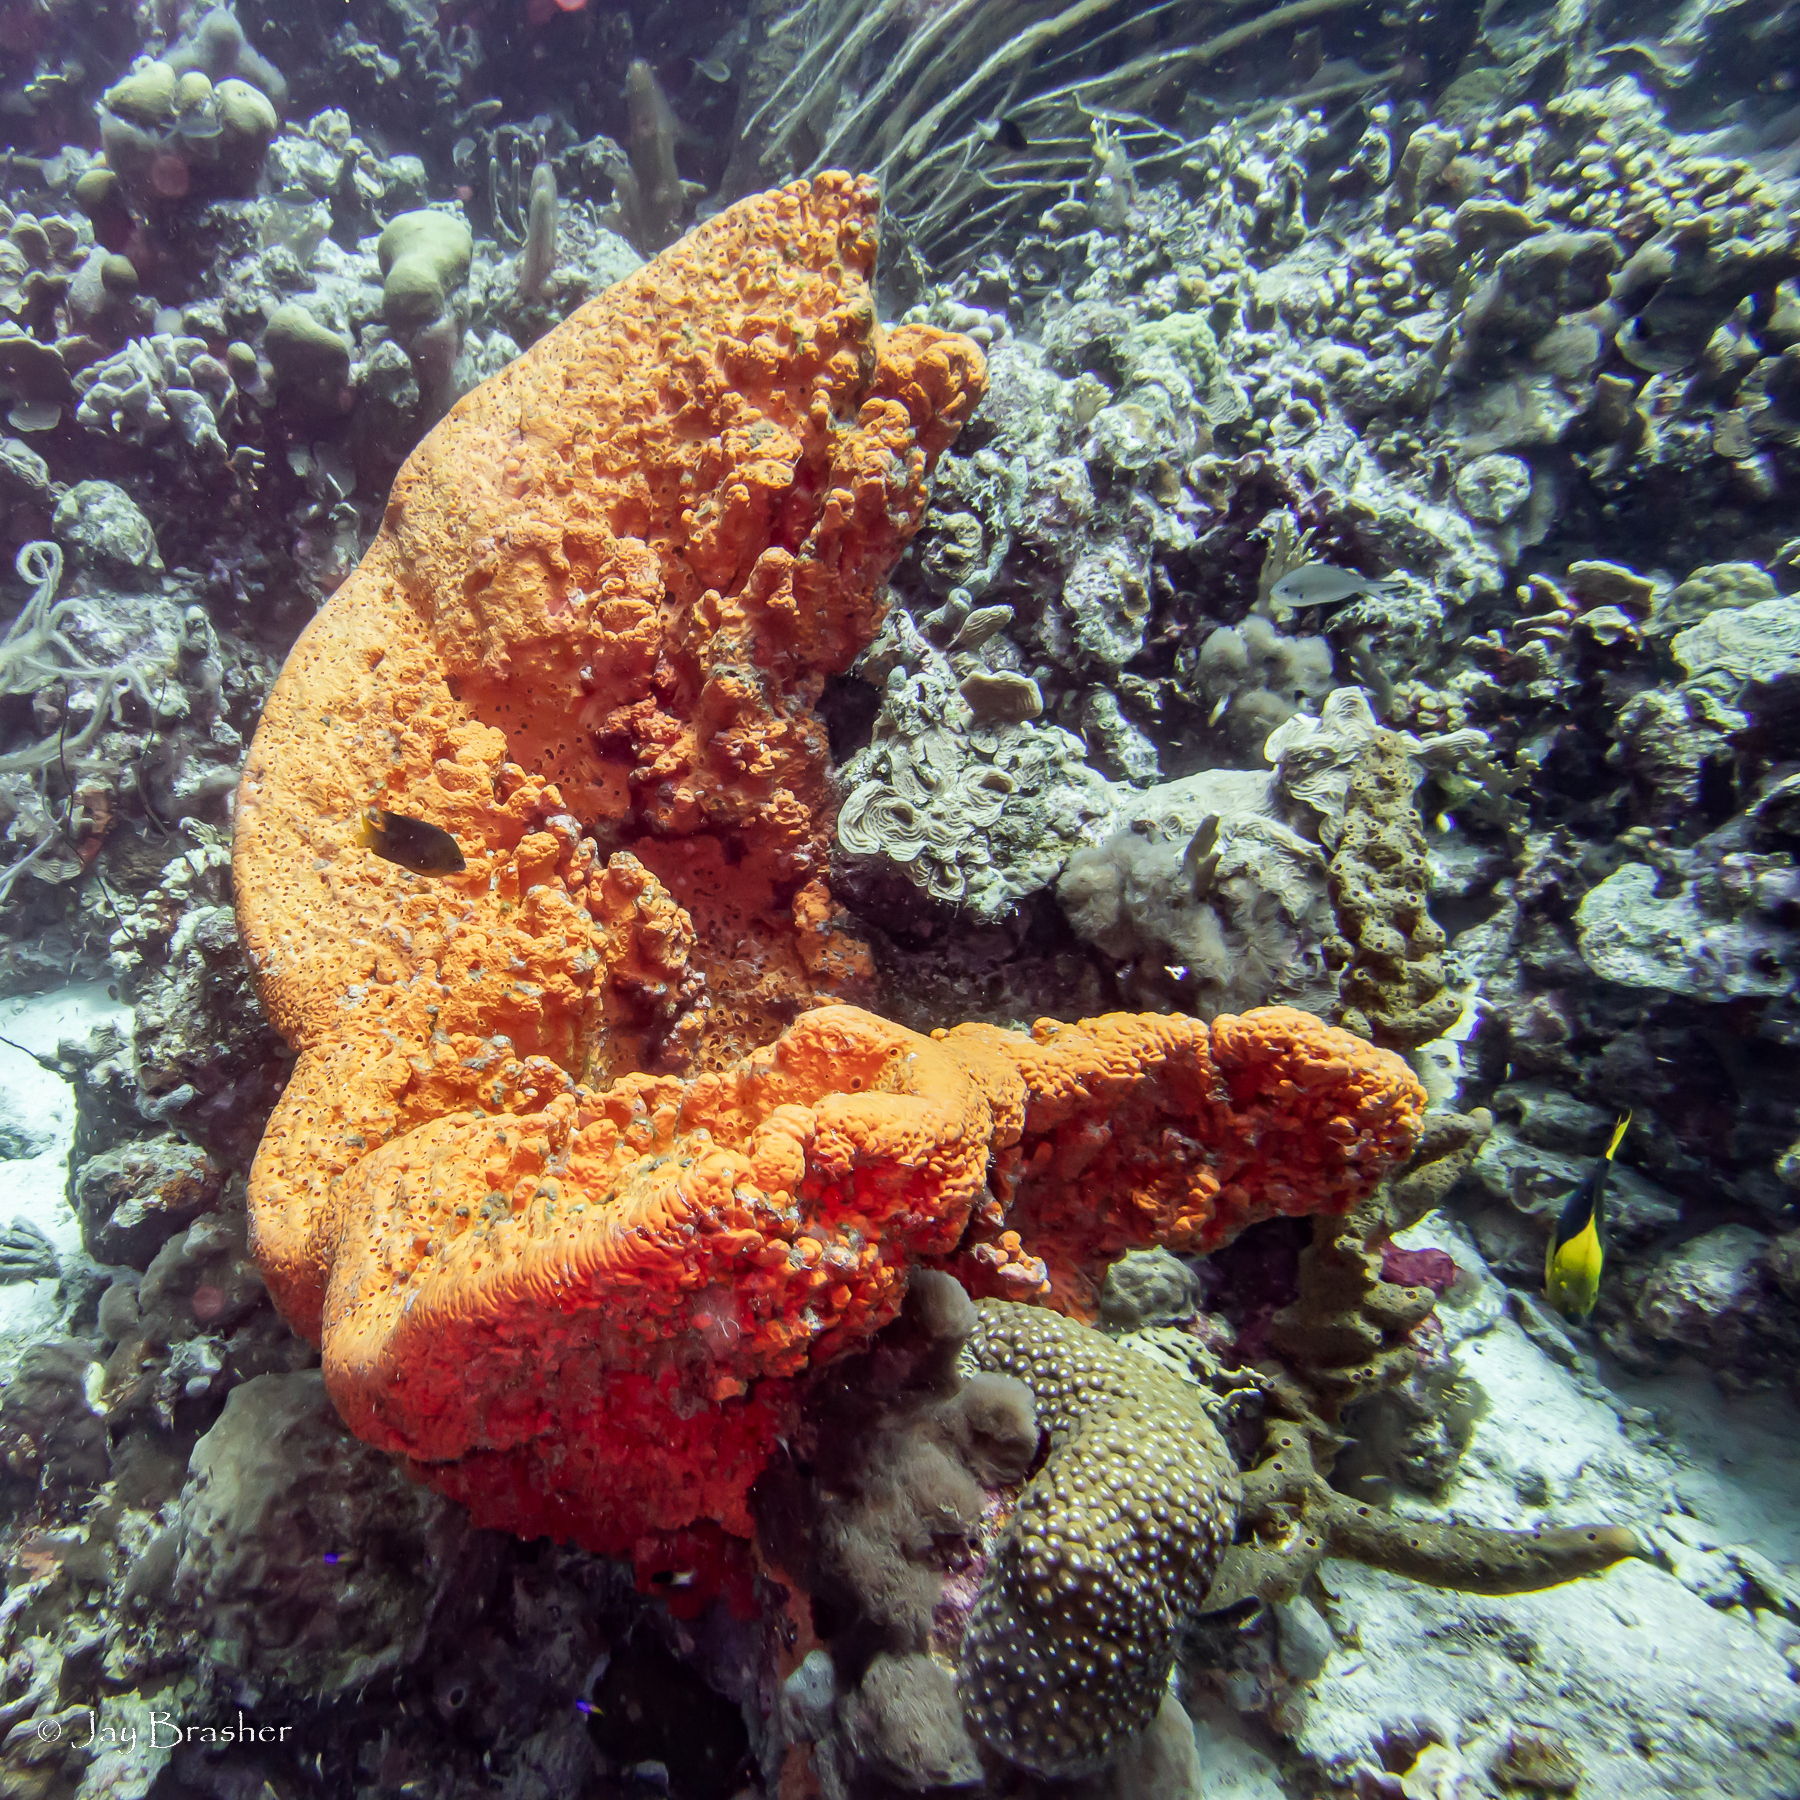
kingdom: Animalia
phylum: Porifera
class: Demospongiae
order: Agelasida
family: Agelasidae
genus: Agelas
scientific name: Agelas clathrodes
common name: Orange elephant ear sponge
